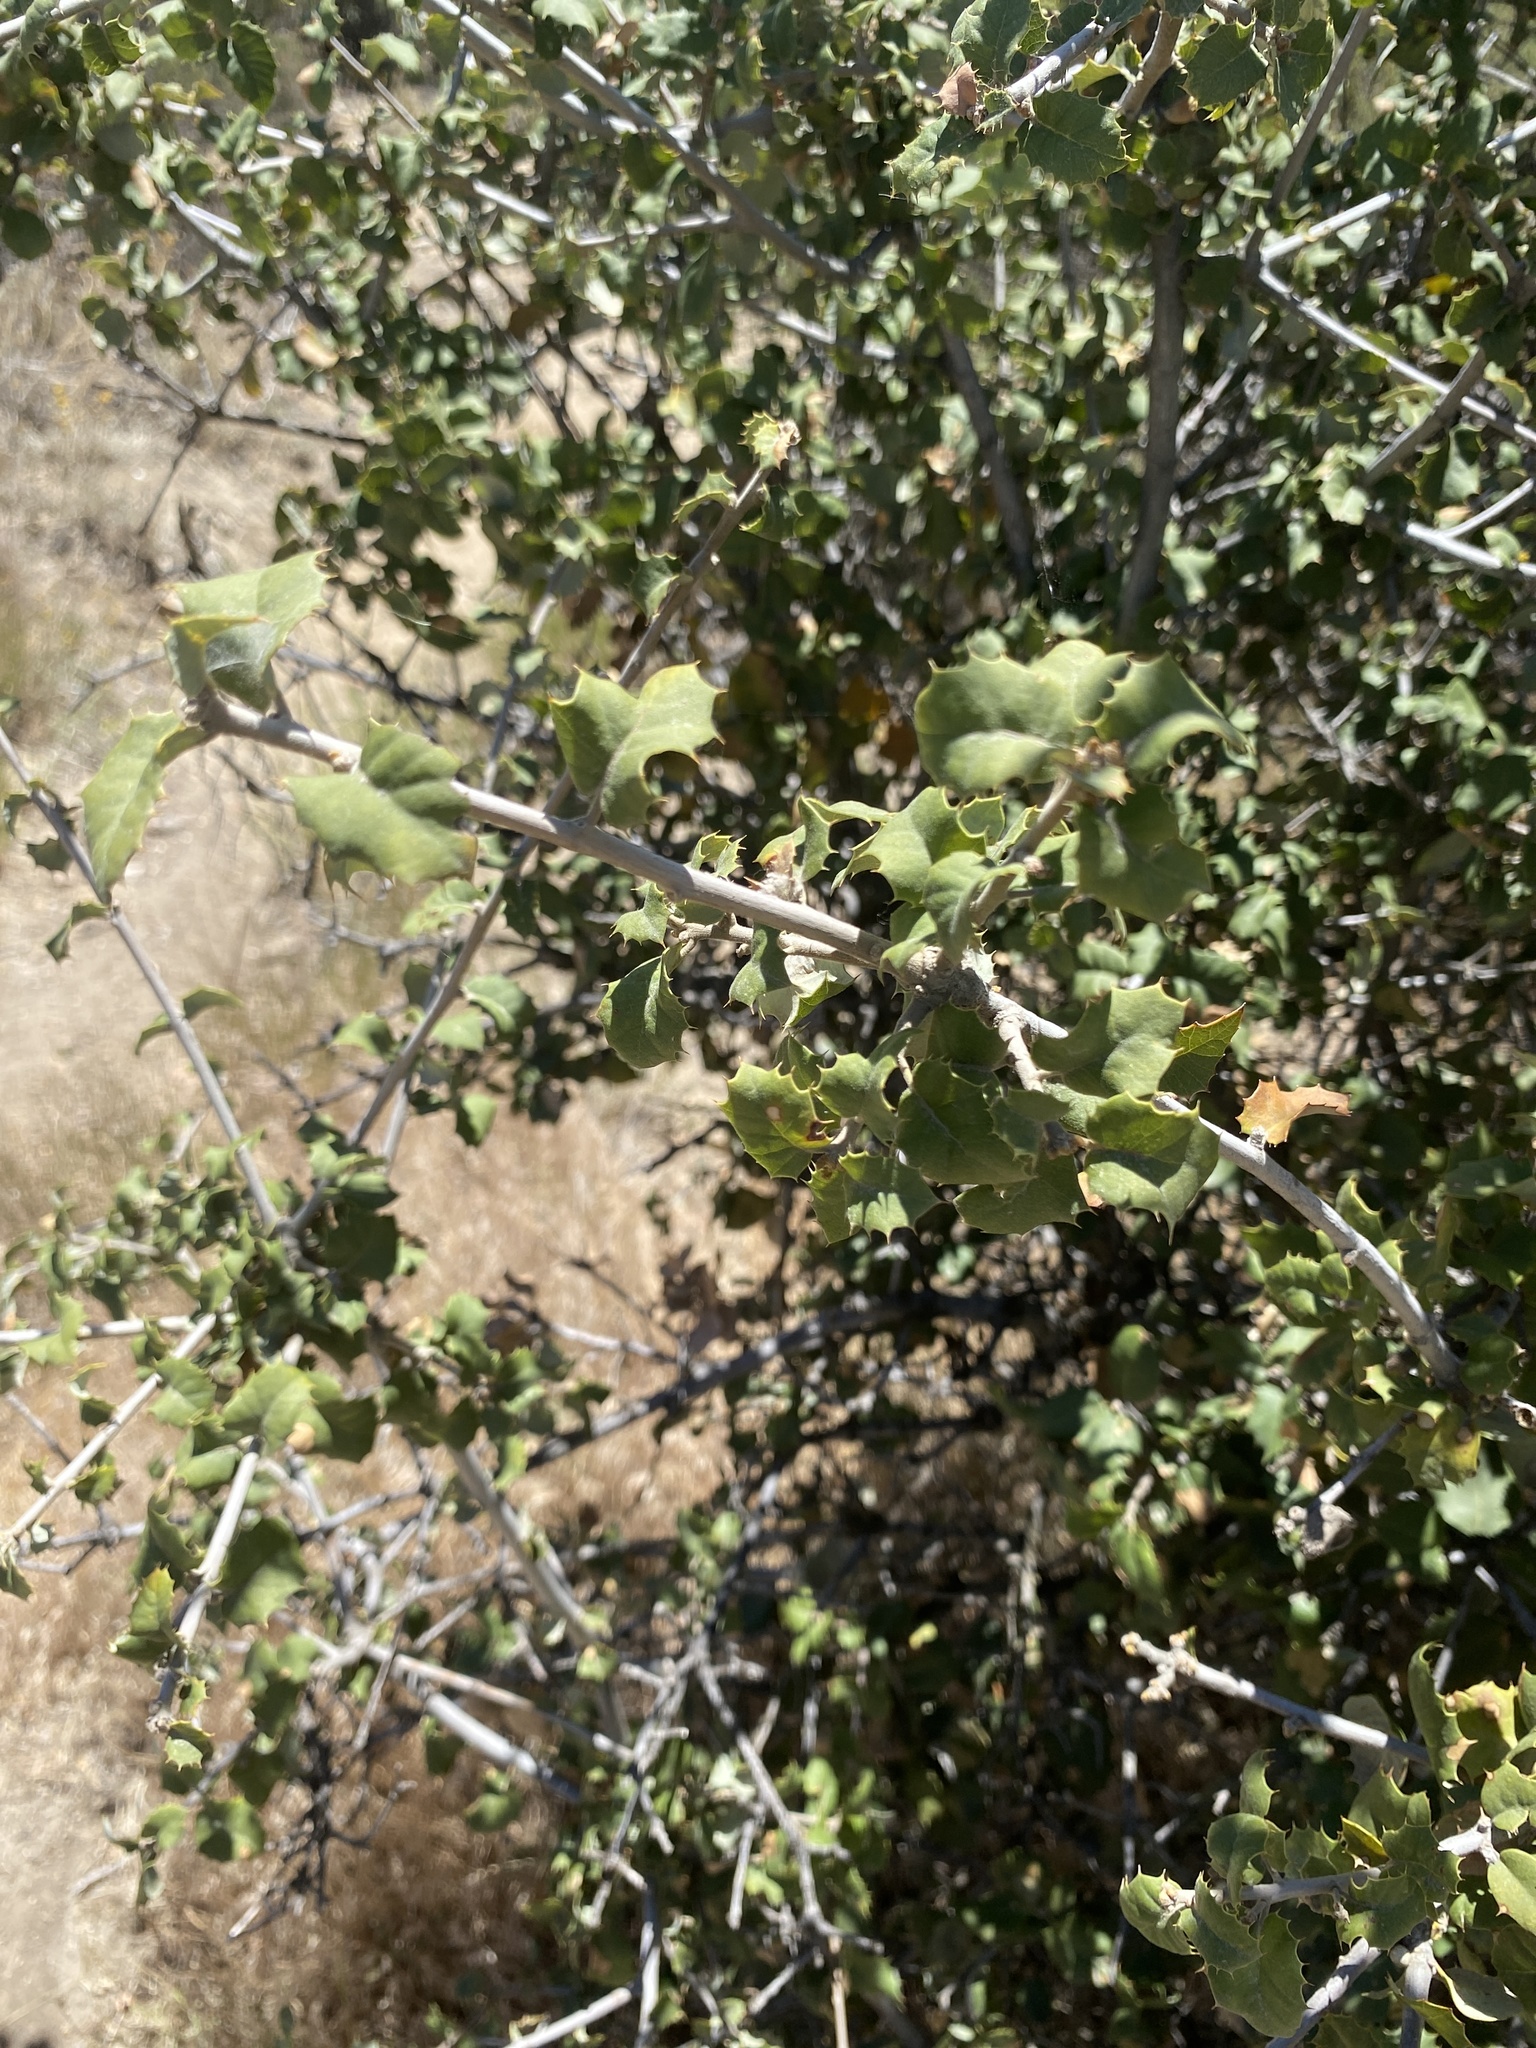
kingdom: Plantae
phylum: Tracheophyta
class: Magnoliopsida
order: Fagales
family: Fagaceae
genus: Quercus
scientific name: Quercus palmeri
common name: Dunn oak
